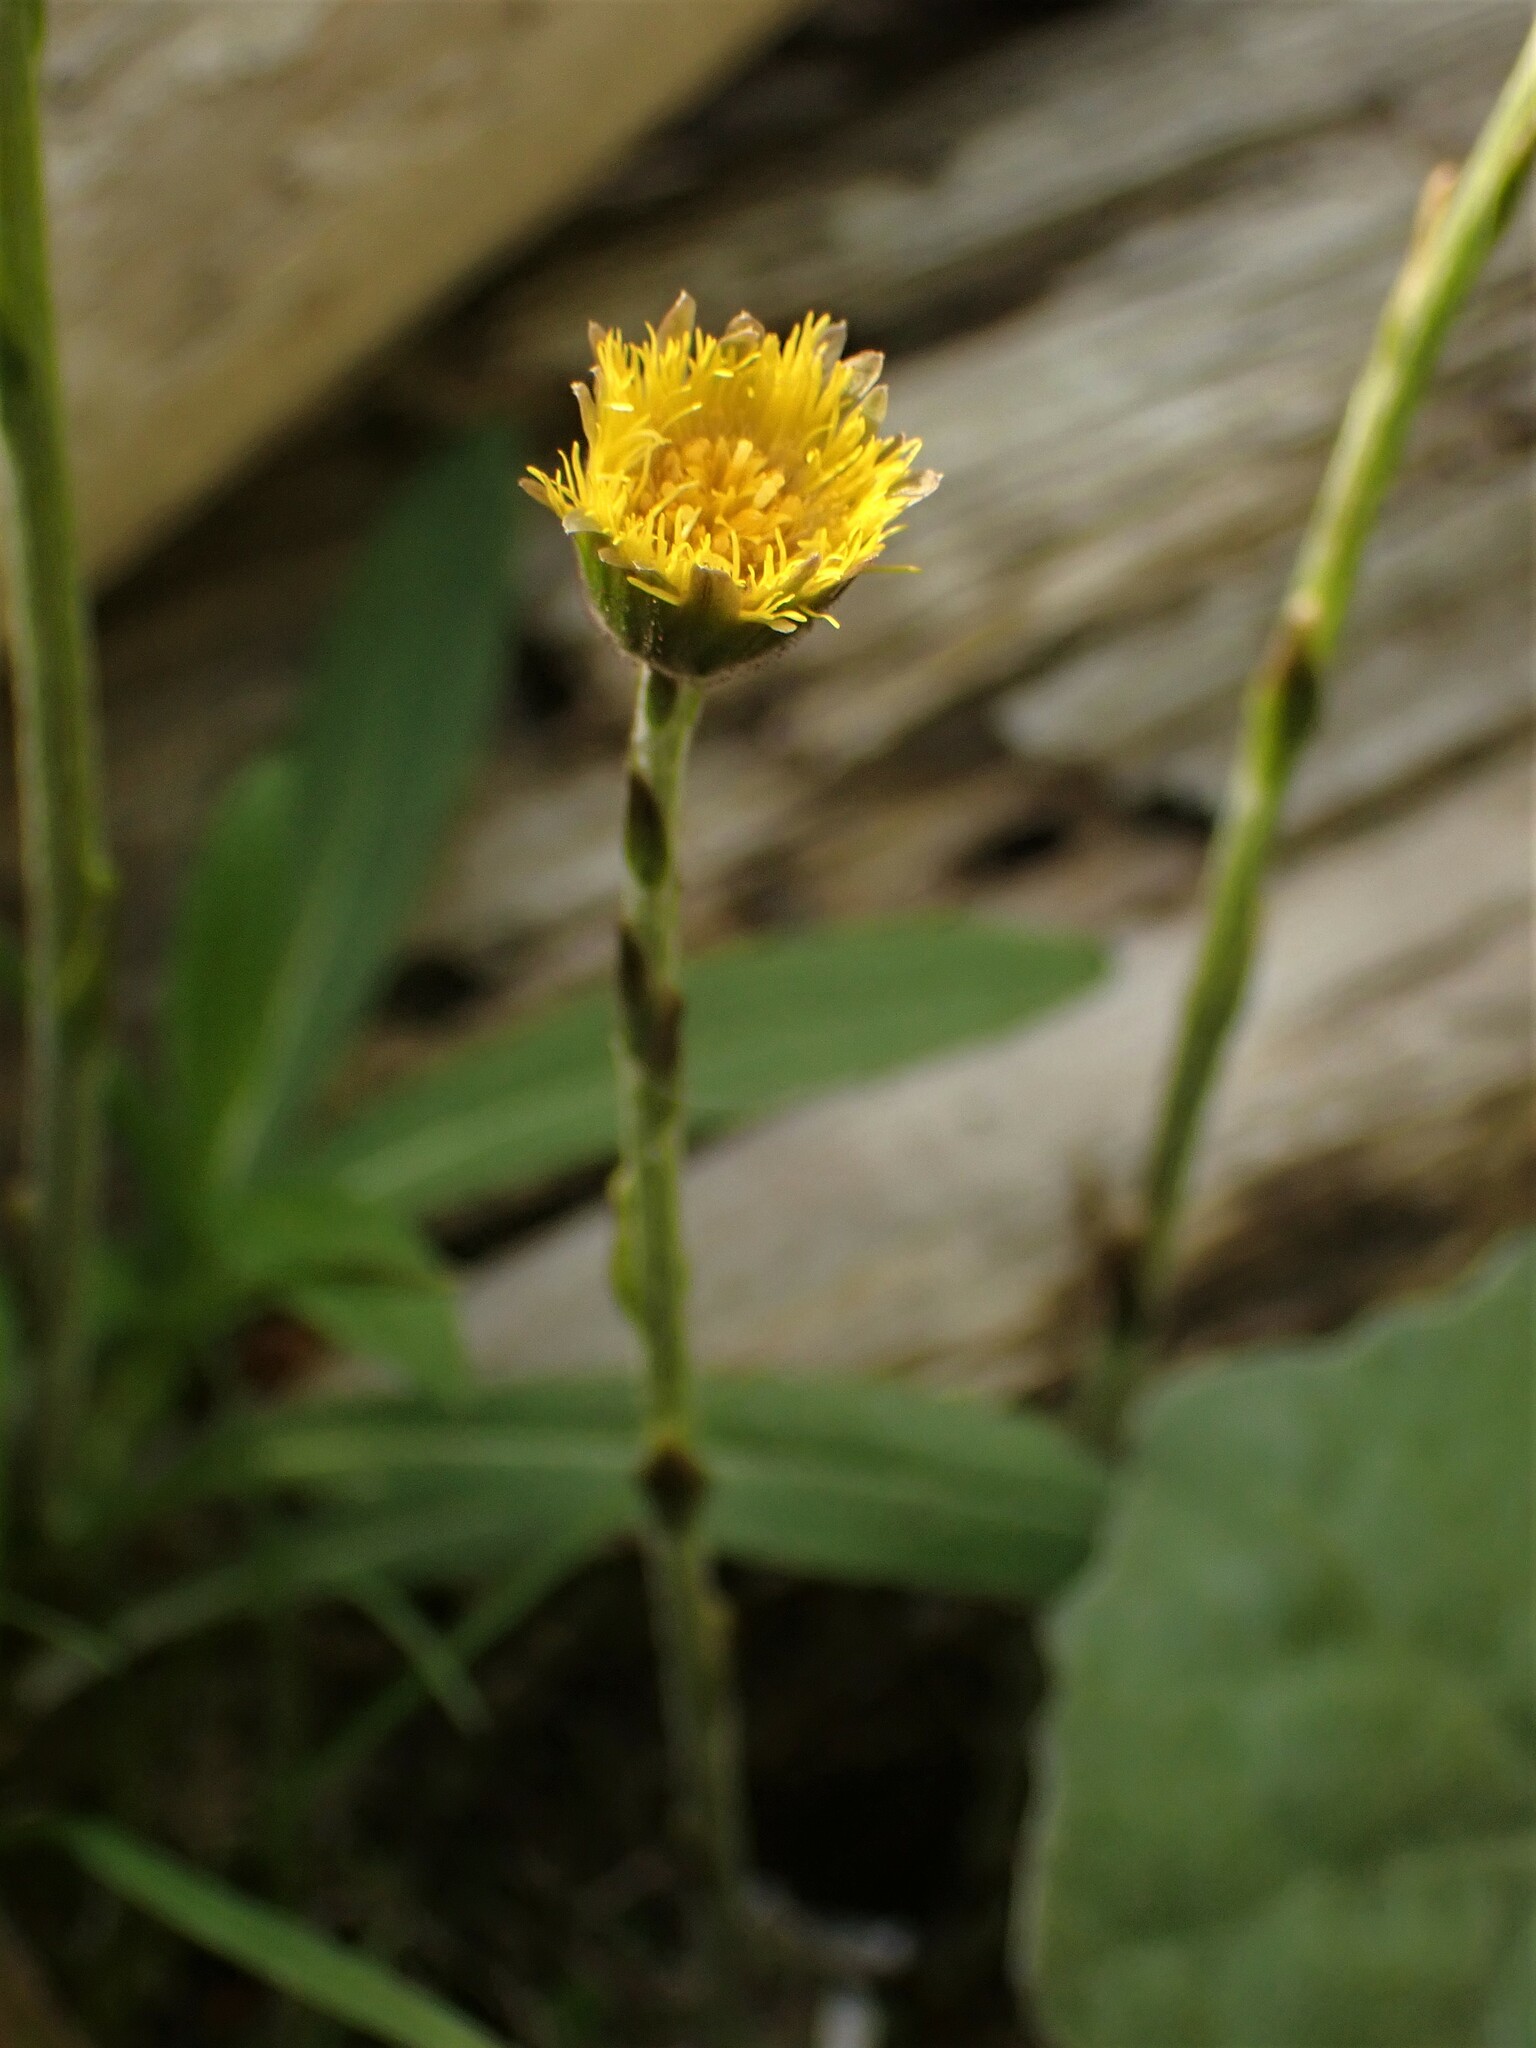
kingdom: Plantae
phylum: Tracheophyta
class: Magnoliopsida
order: Asterales
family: Asteraceae
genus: Tussilago
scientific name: Tussilago farfara
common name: Coltsfoot
